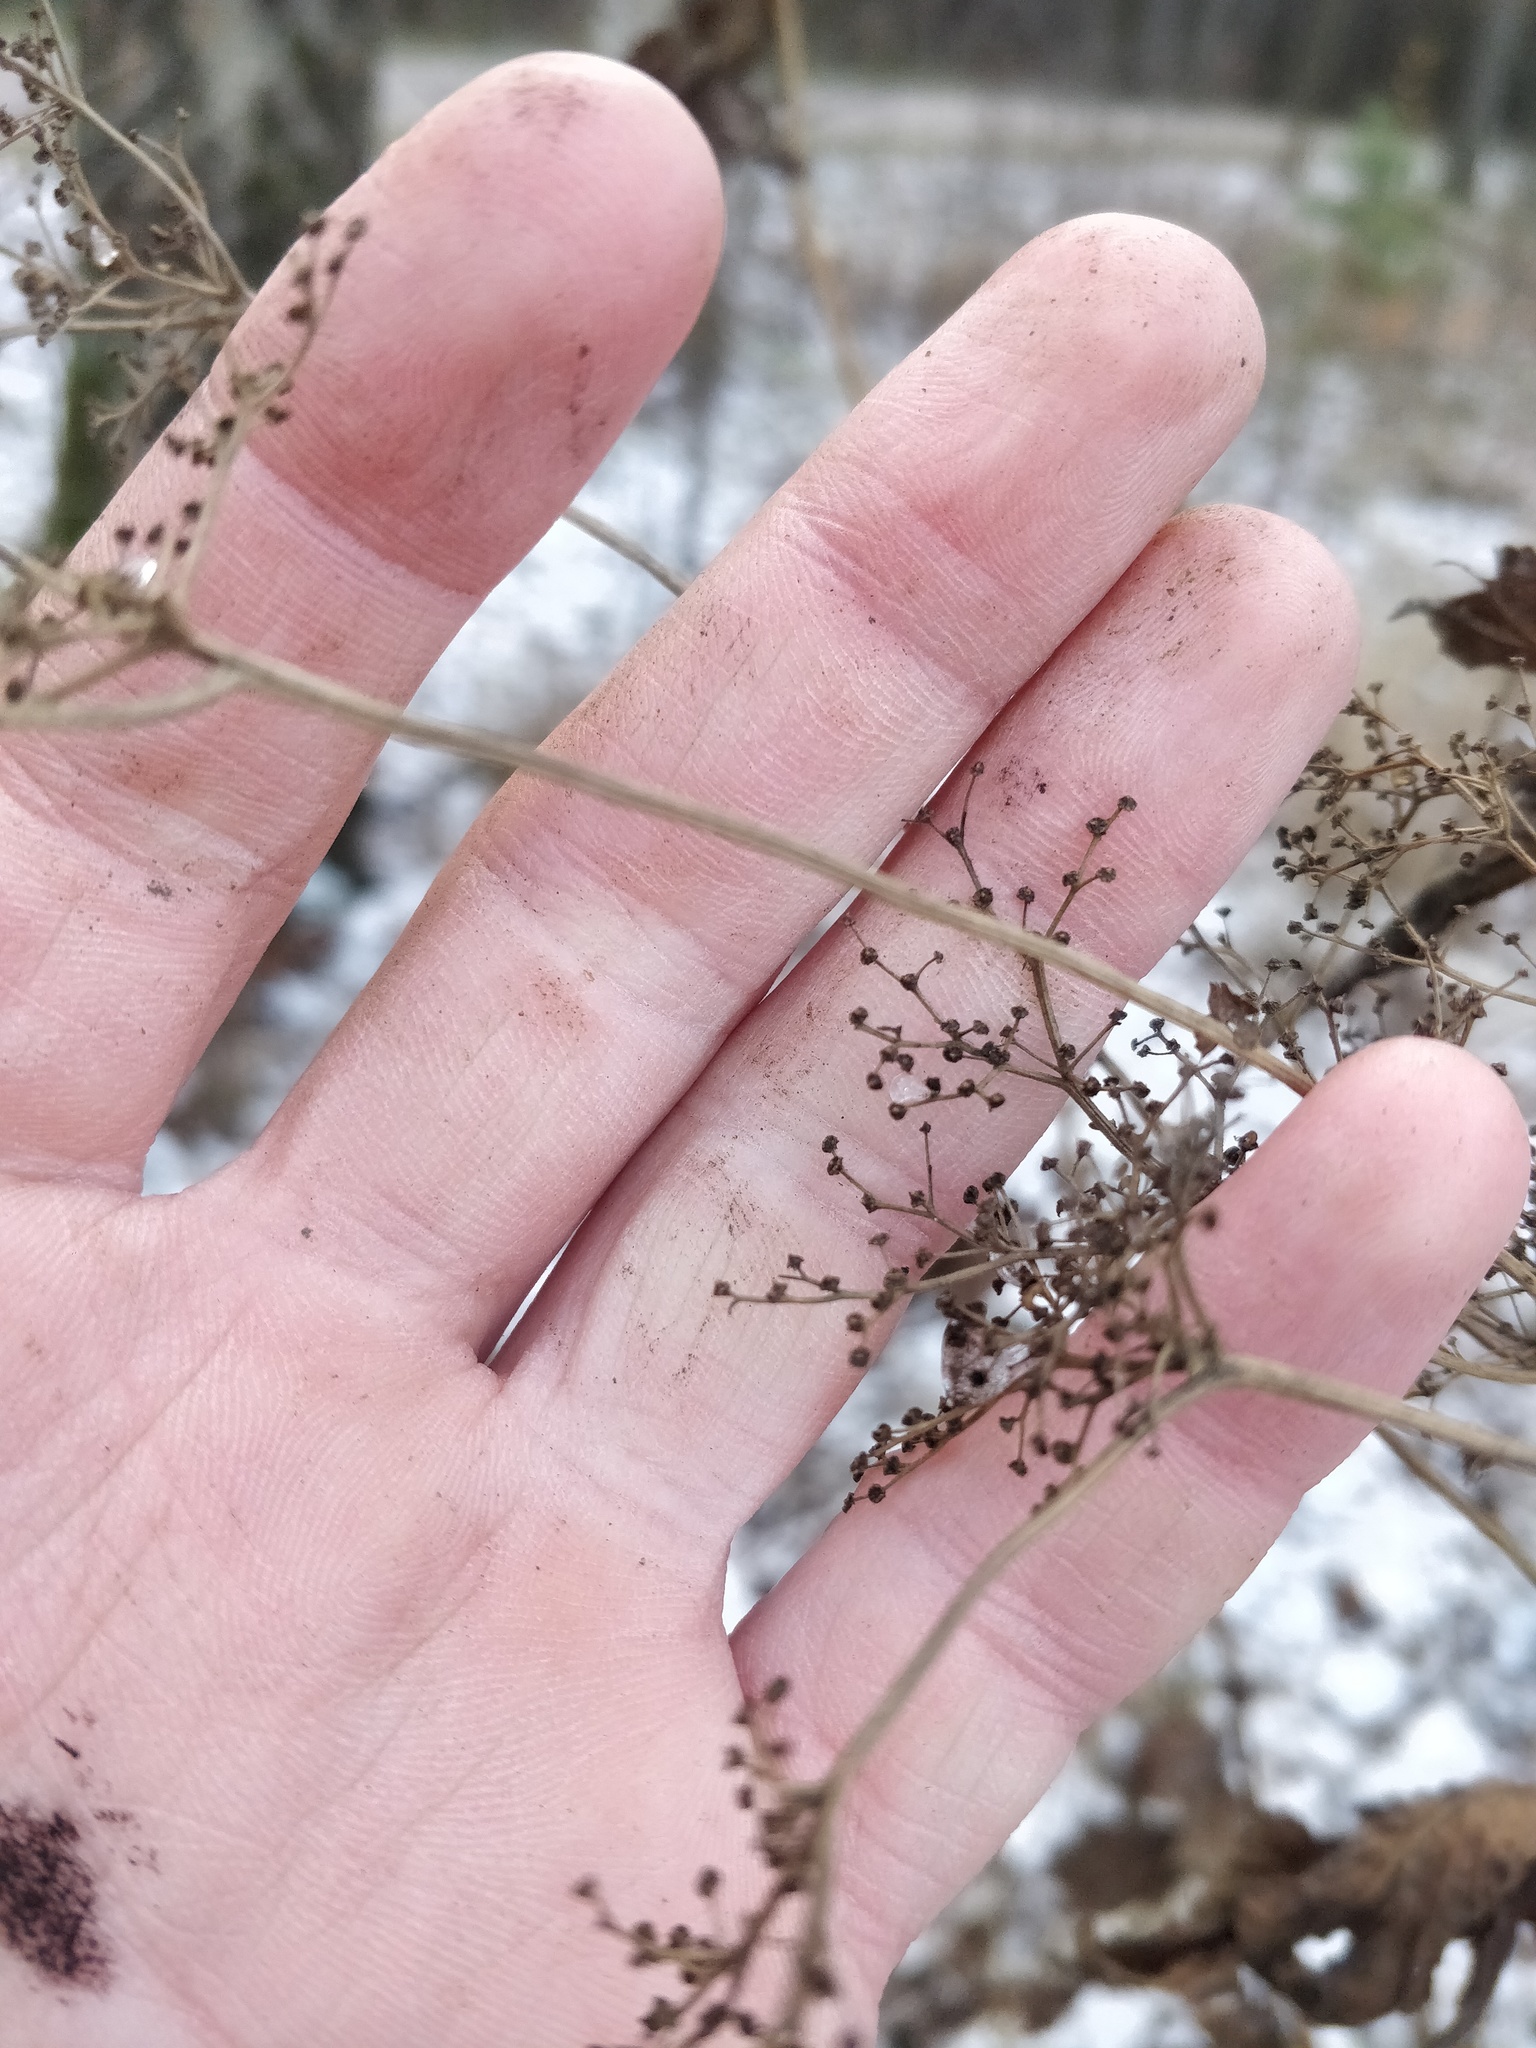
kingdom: Plantae
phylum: Tracheophyta
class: Magnoliopsida
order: Rosales
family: Rosaceae
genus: Filipendula
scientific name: Filipendula ulmaria
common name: Meadowsweet
